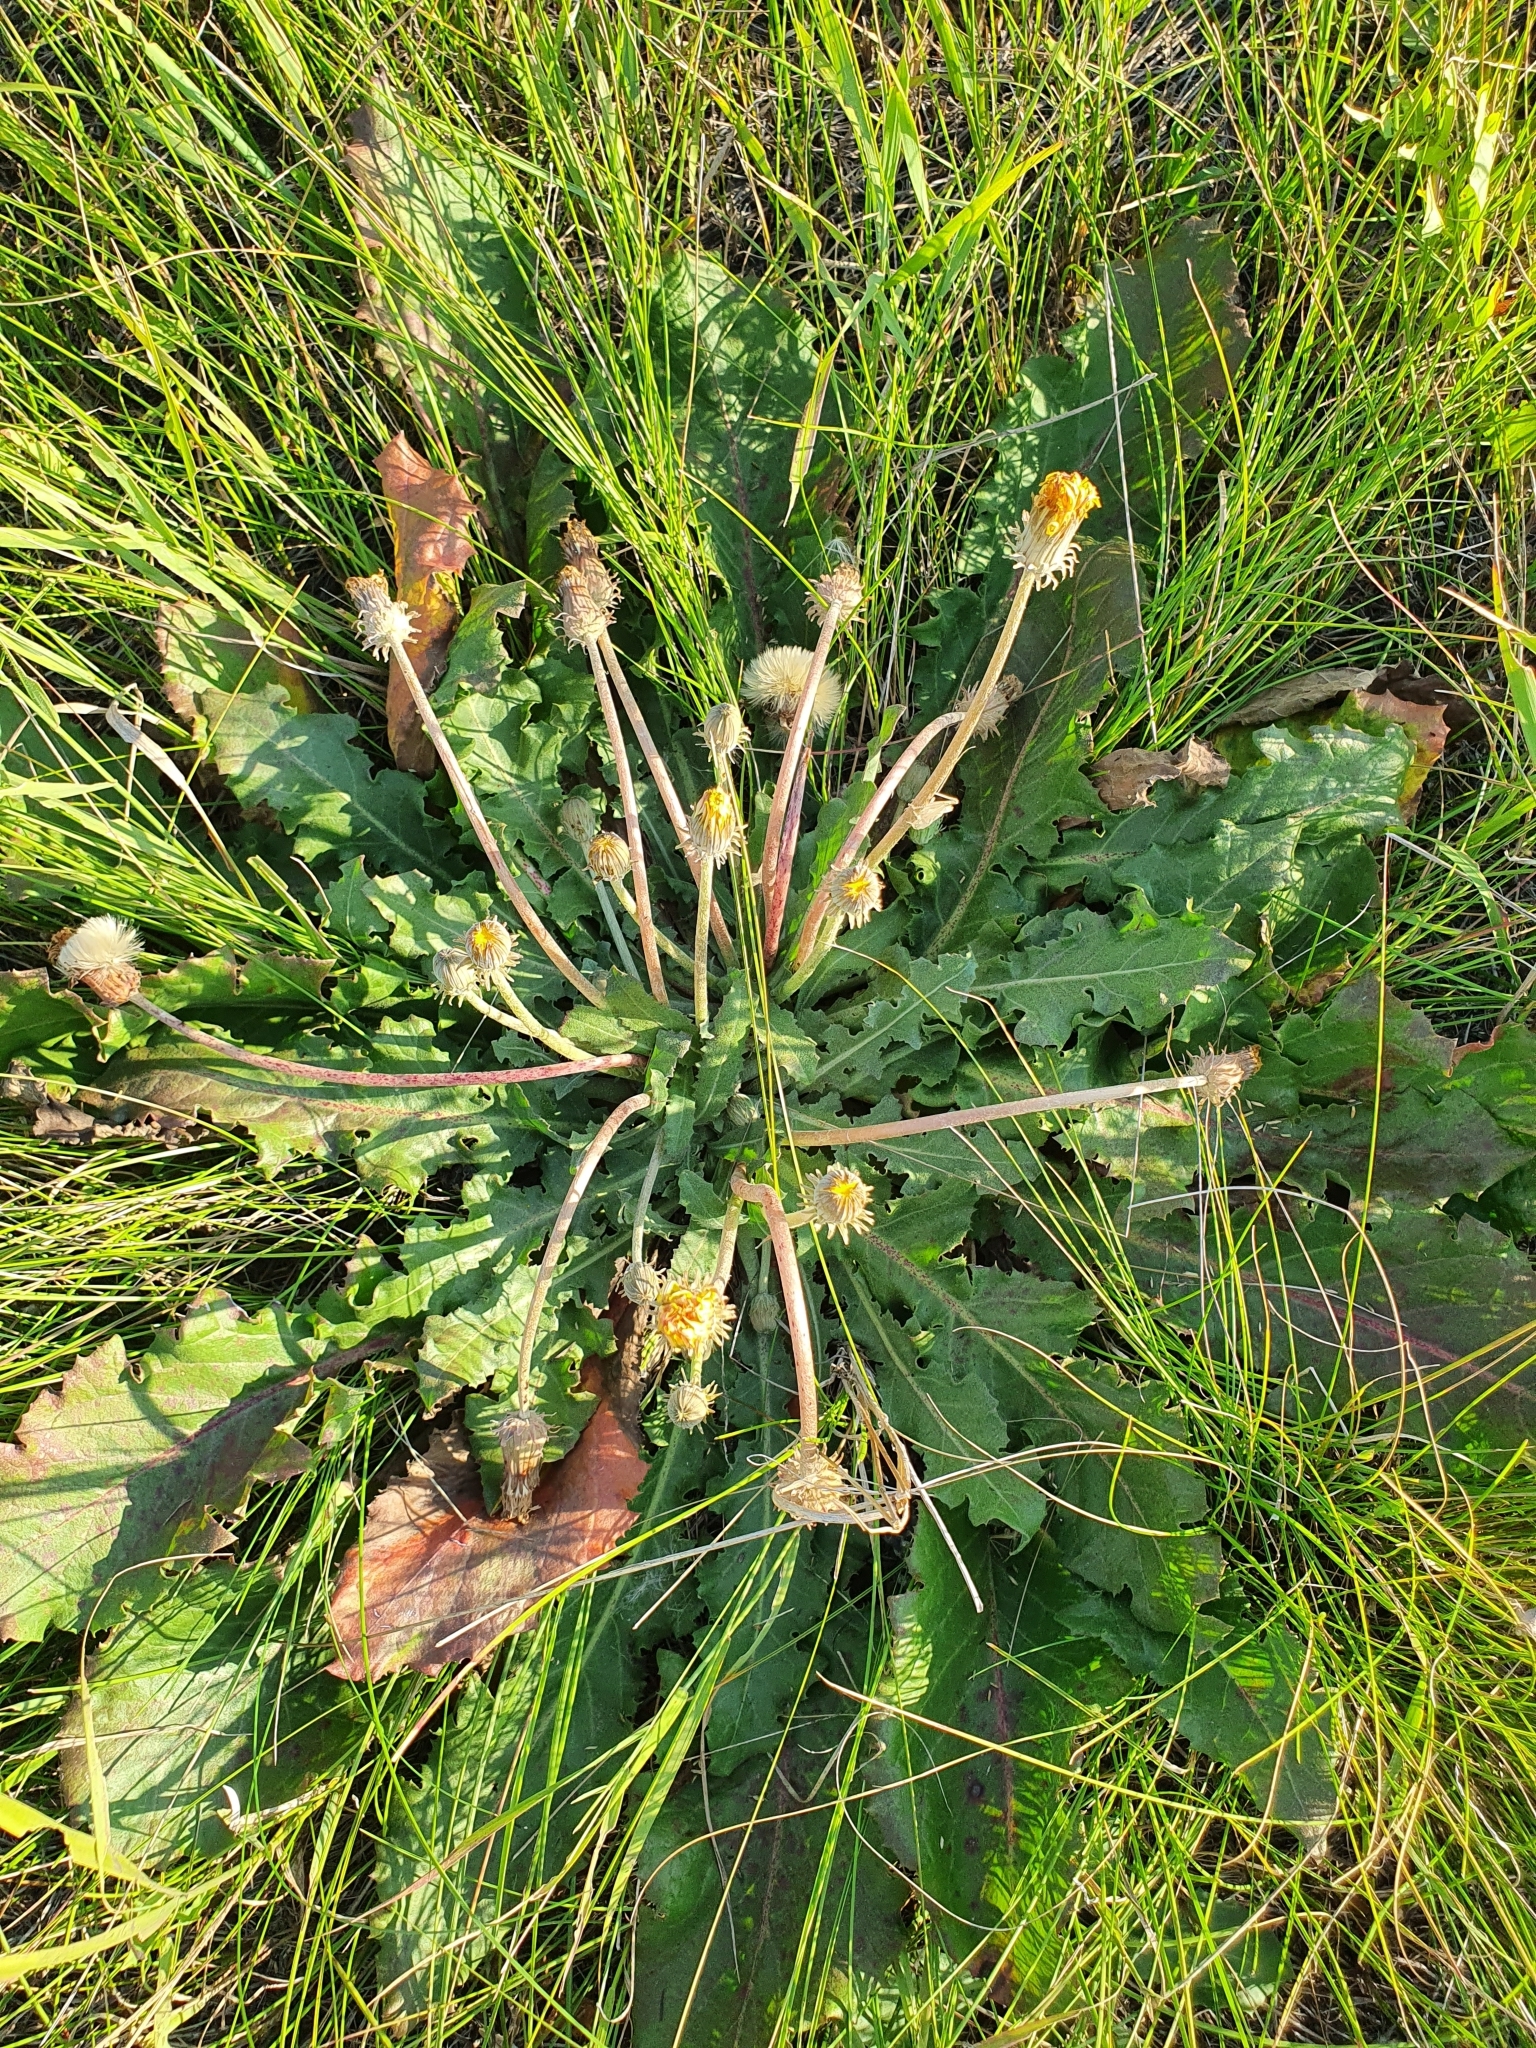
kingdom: Plantae
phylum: Tracheophyta
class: Magnoliopsida
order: Asterales
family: Asteraceae
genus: Taraxacum
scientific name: Taraxacum serotinum
